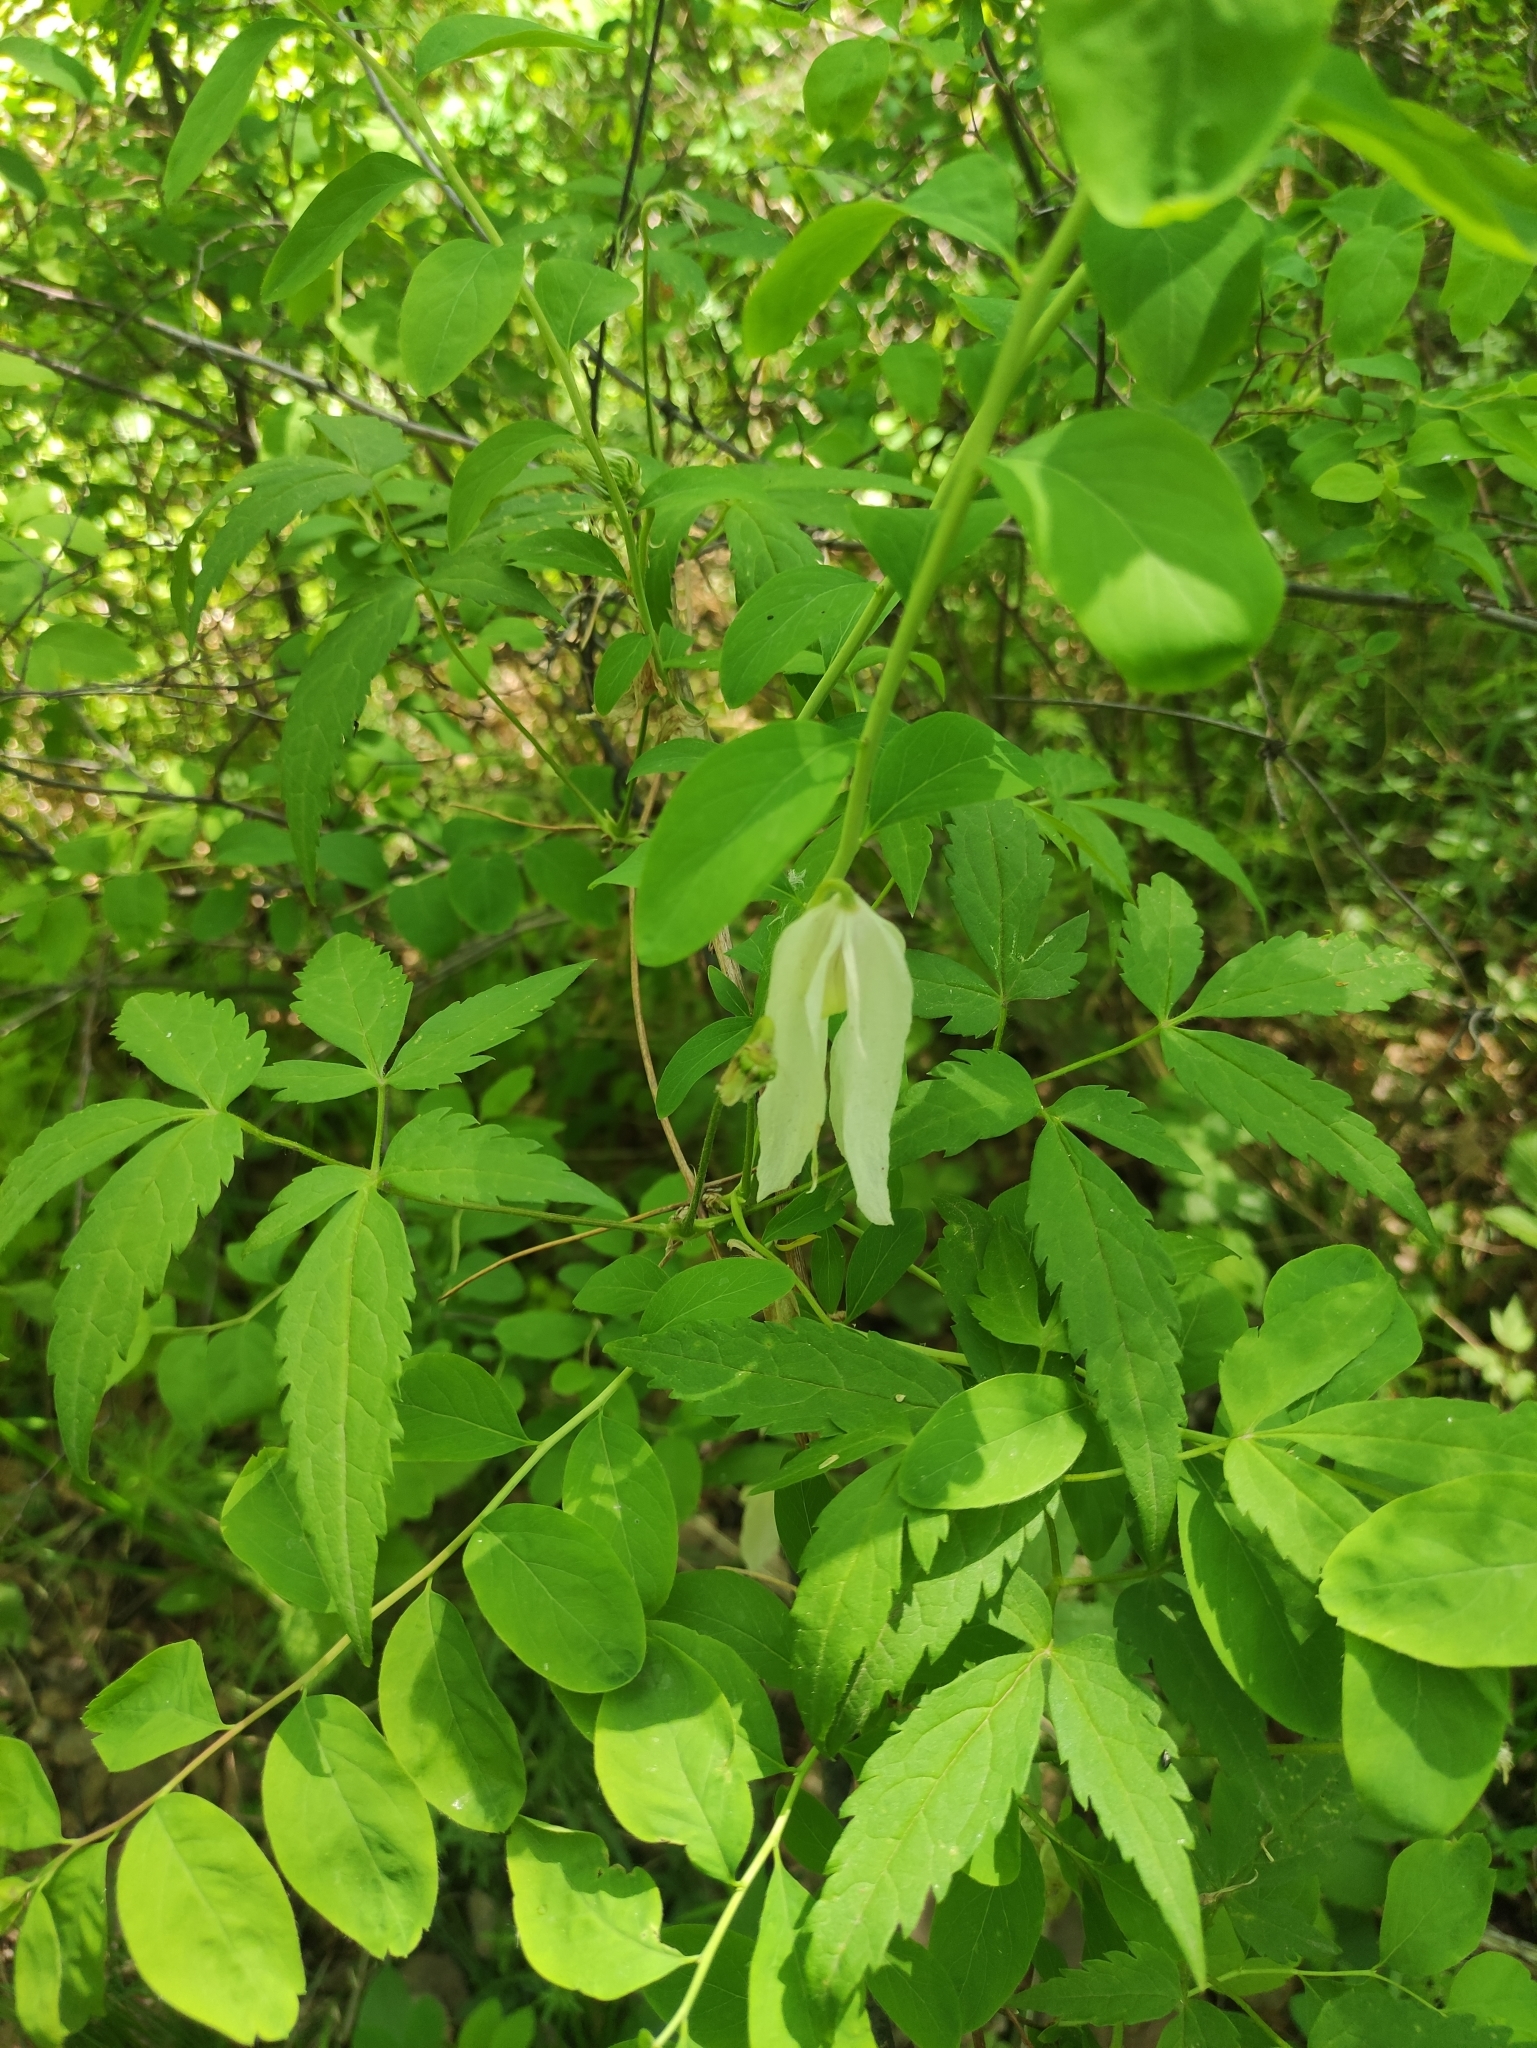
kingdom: Plantae
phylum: Tracheophyta
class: Magnoliopsida
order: Ranunculales
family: Ranunculaceae
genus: Clematis
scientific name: Clematis sibirica
